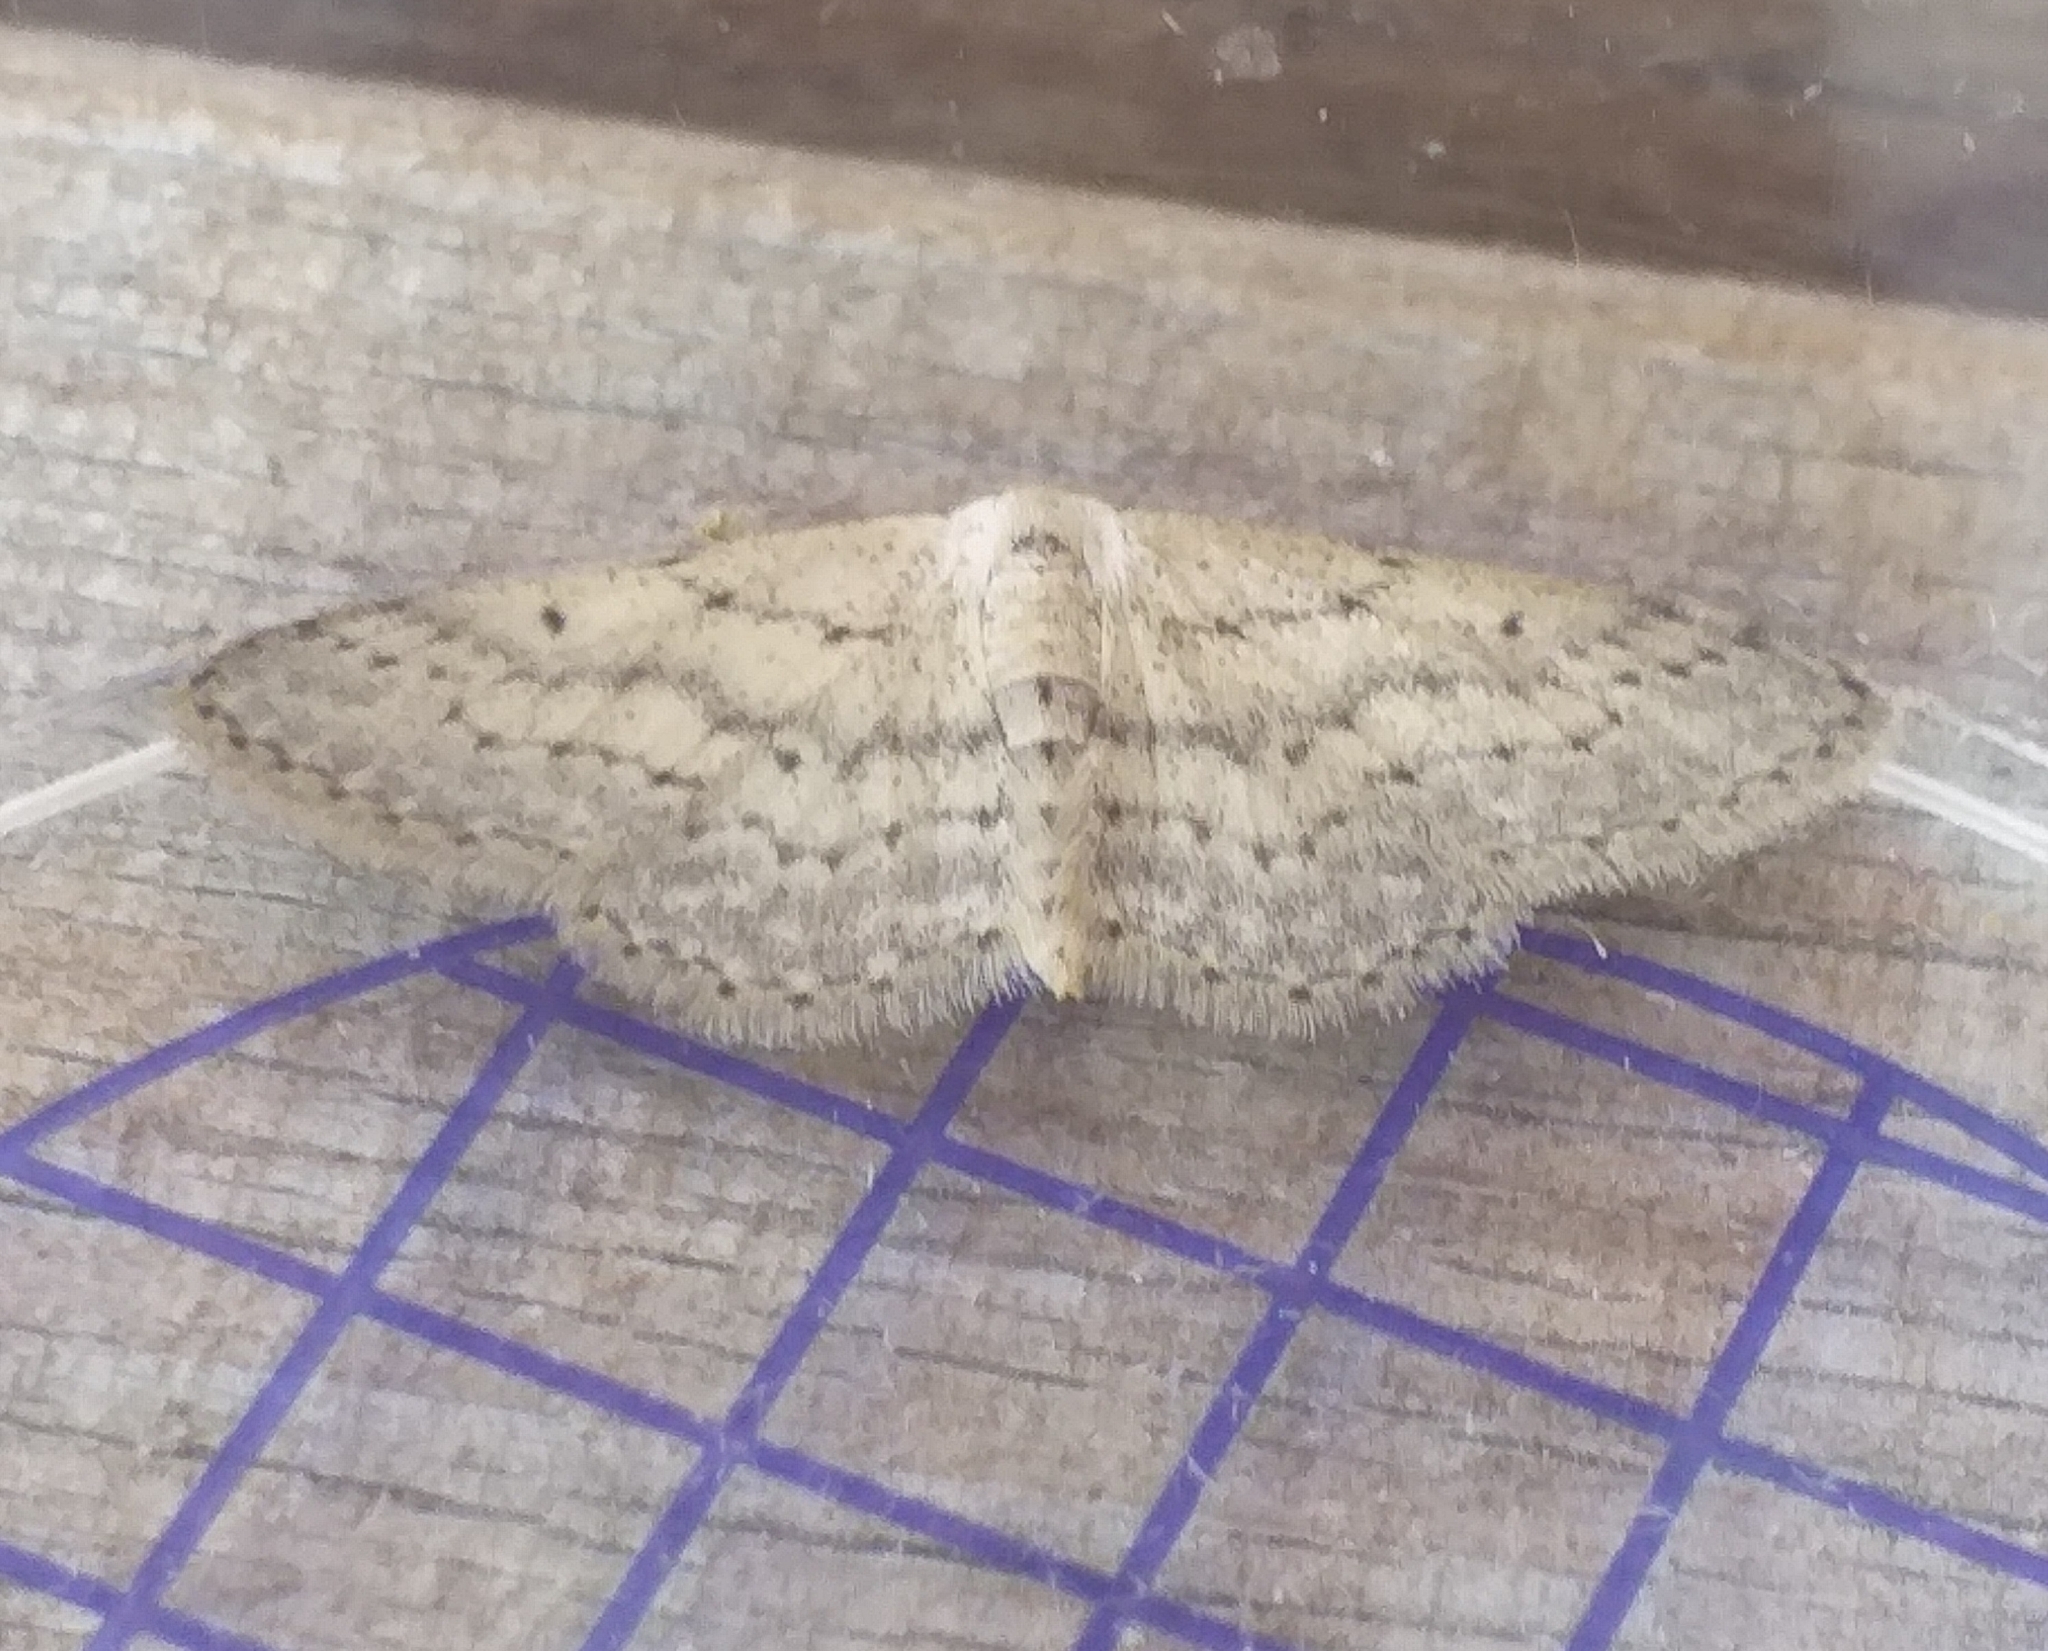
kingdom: Animalia
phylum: Arthropoda
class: Insecta
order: Lepidoptera
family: Geometridae
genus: Idaea
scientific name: Idaea seriata
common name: Small dusty wave
